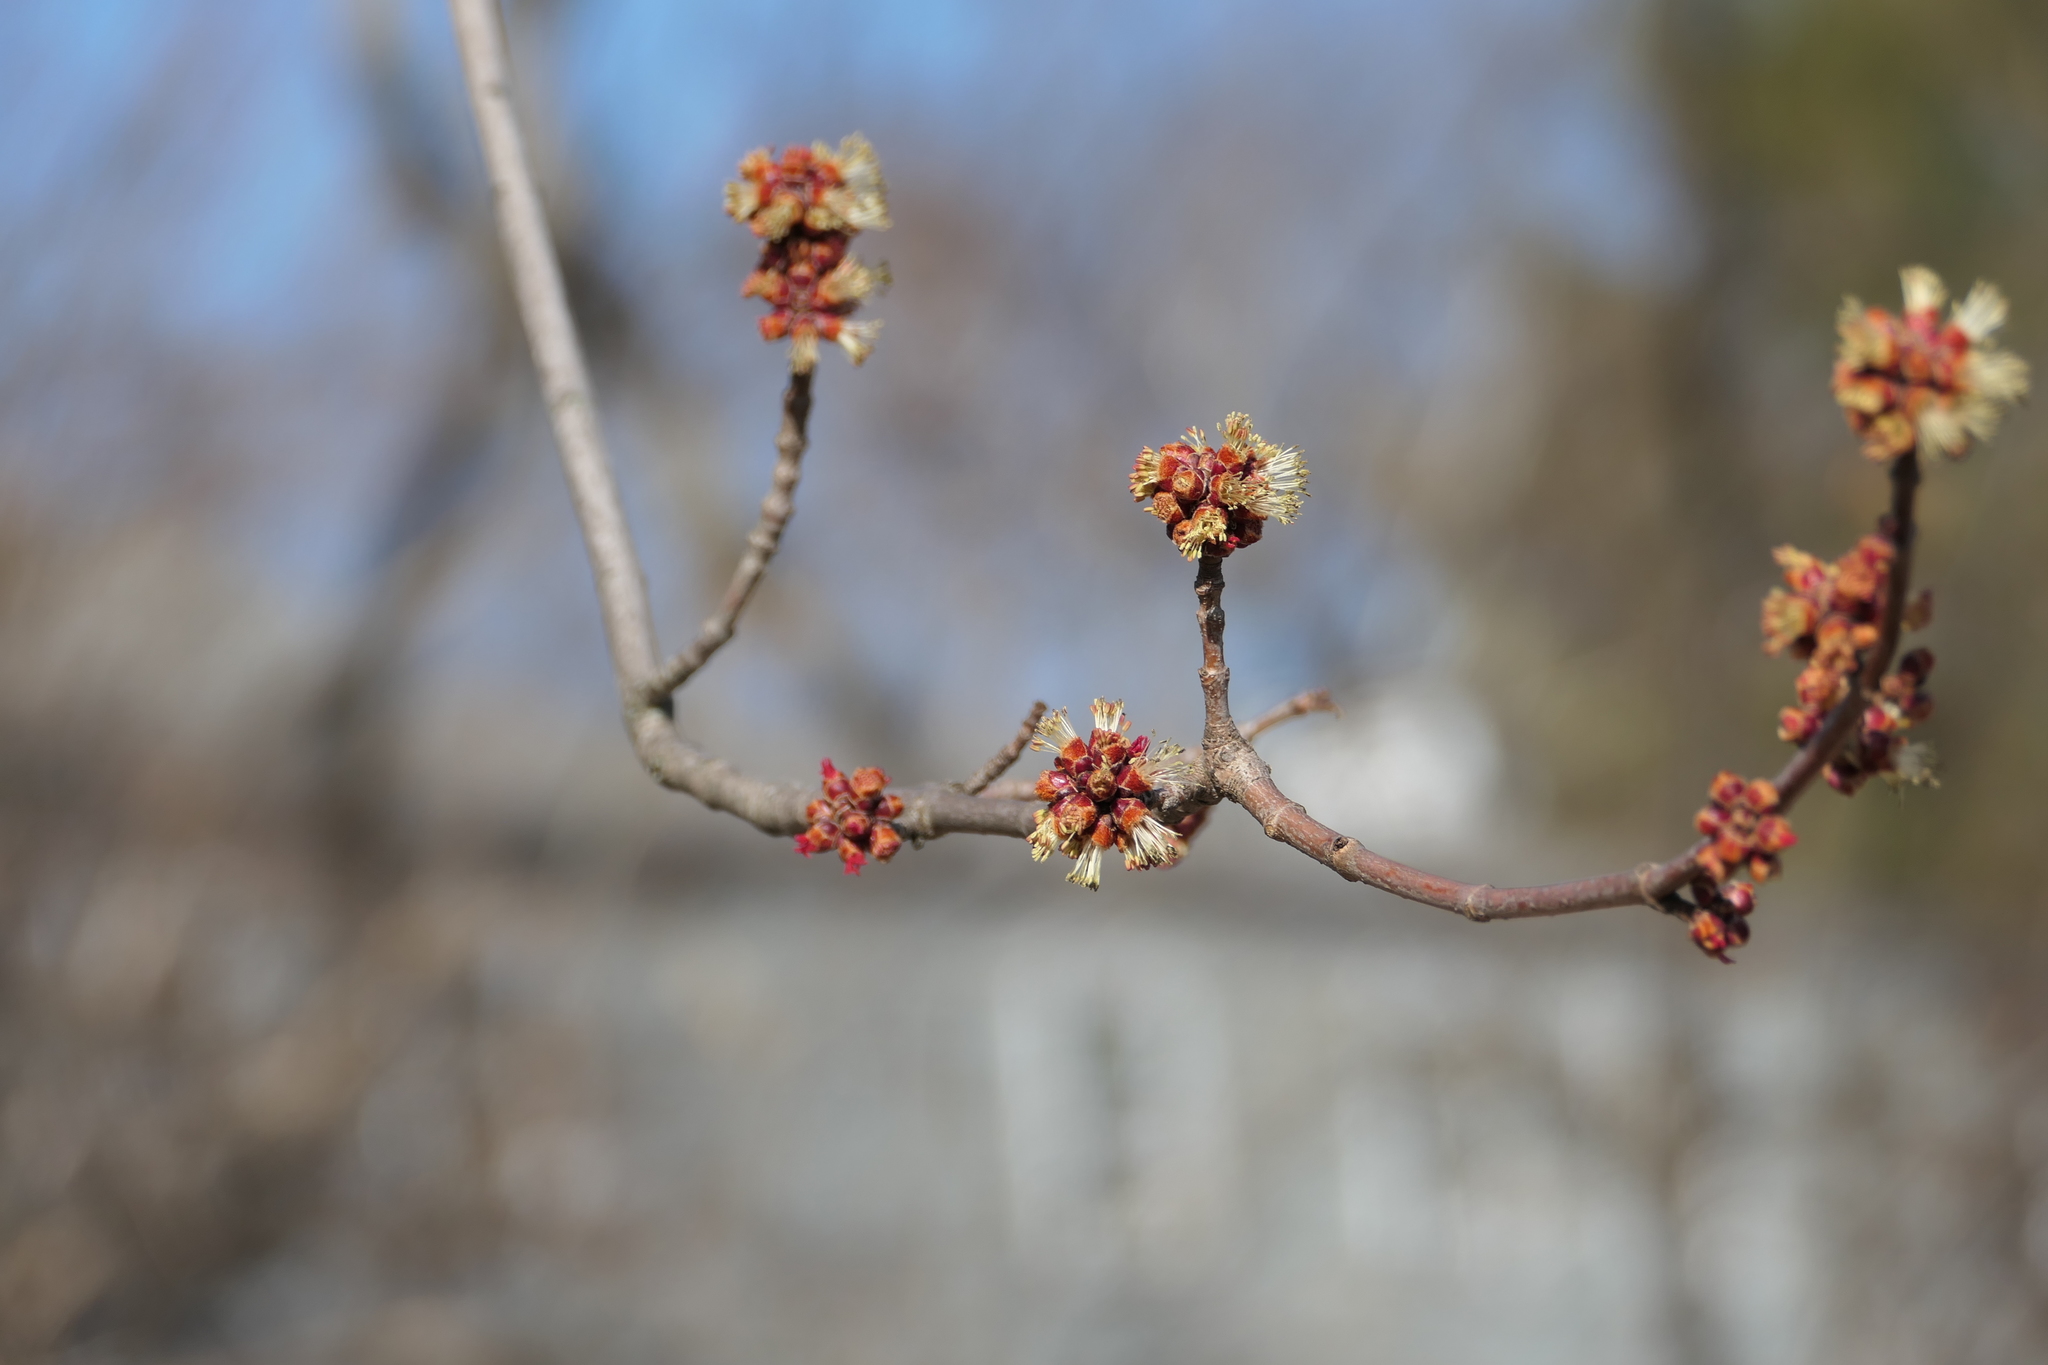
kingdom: Plantae
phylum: Tracheophyta
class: Magnoliopsida
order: Sapindales
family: Sapindaceae
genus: Acer
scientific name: Acer rubrum
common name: Red maple
